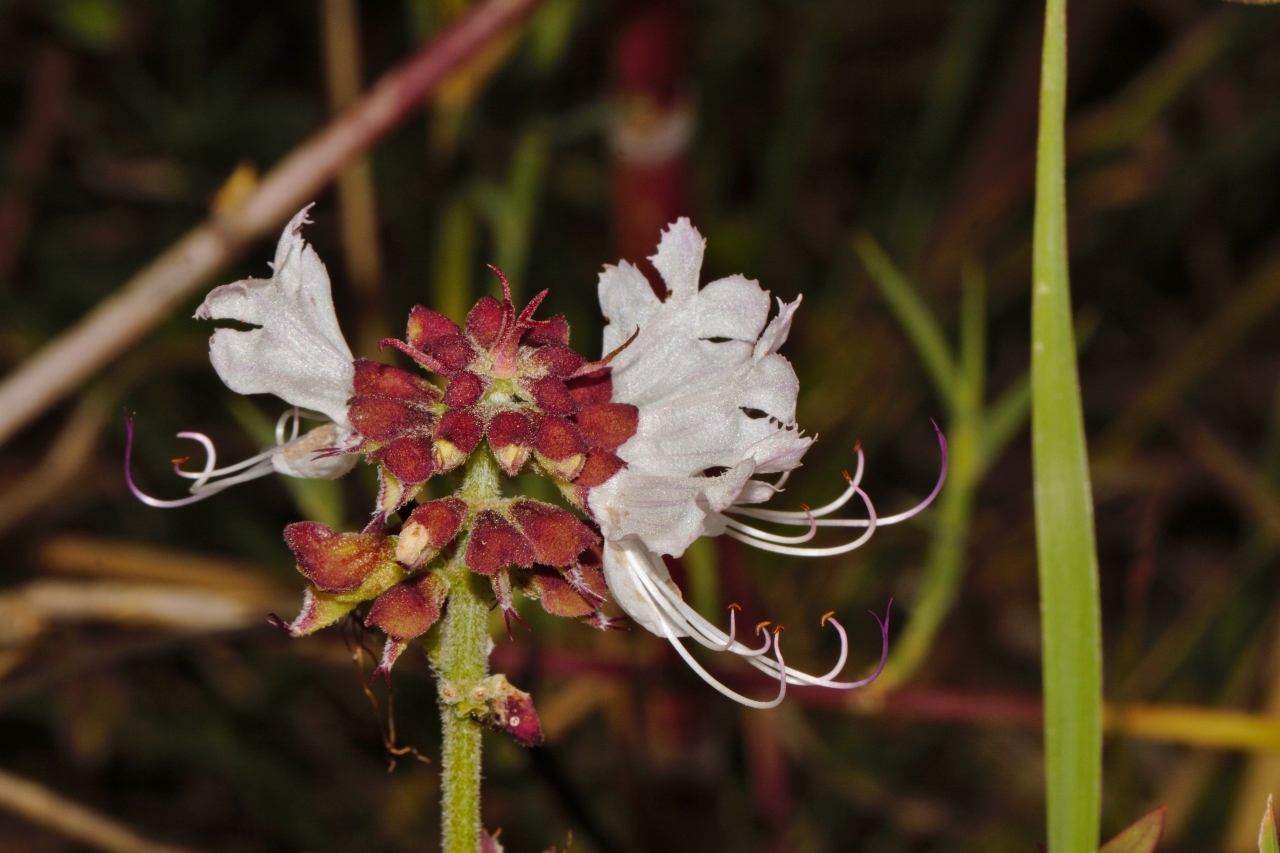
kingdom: Plantae
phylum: Tracheophyta
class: Magnoliopsida
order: Lamiales
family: Lamiaceae
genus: Ocimum
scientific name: Ocimum obovatum
